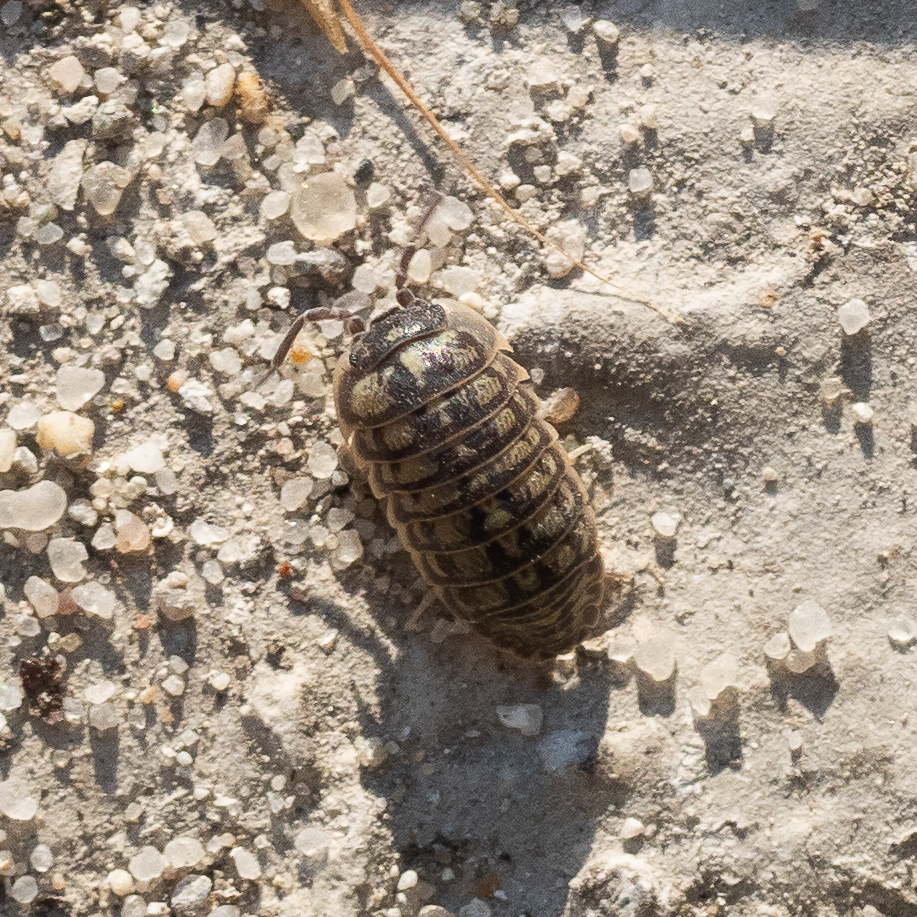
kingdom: Animalia
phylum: Arthropoda
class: Malacostraca
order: Isopoda
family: Armadillidiidae
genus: Armadillidium
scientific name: Armadillidium versicolor
